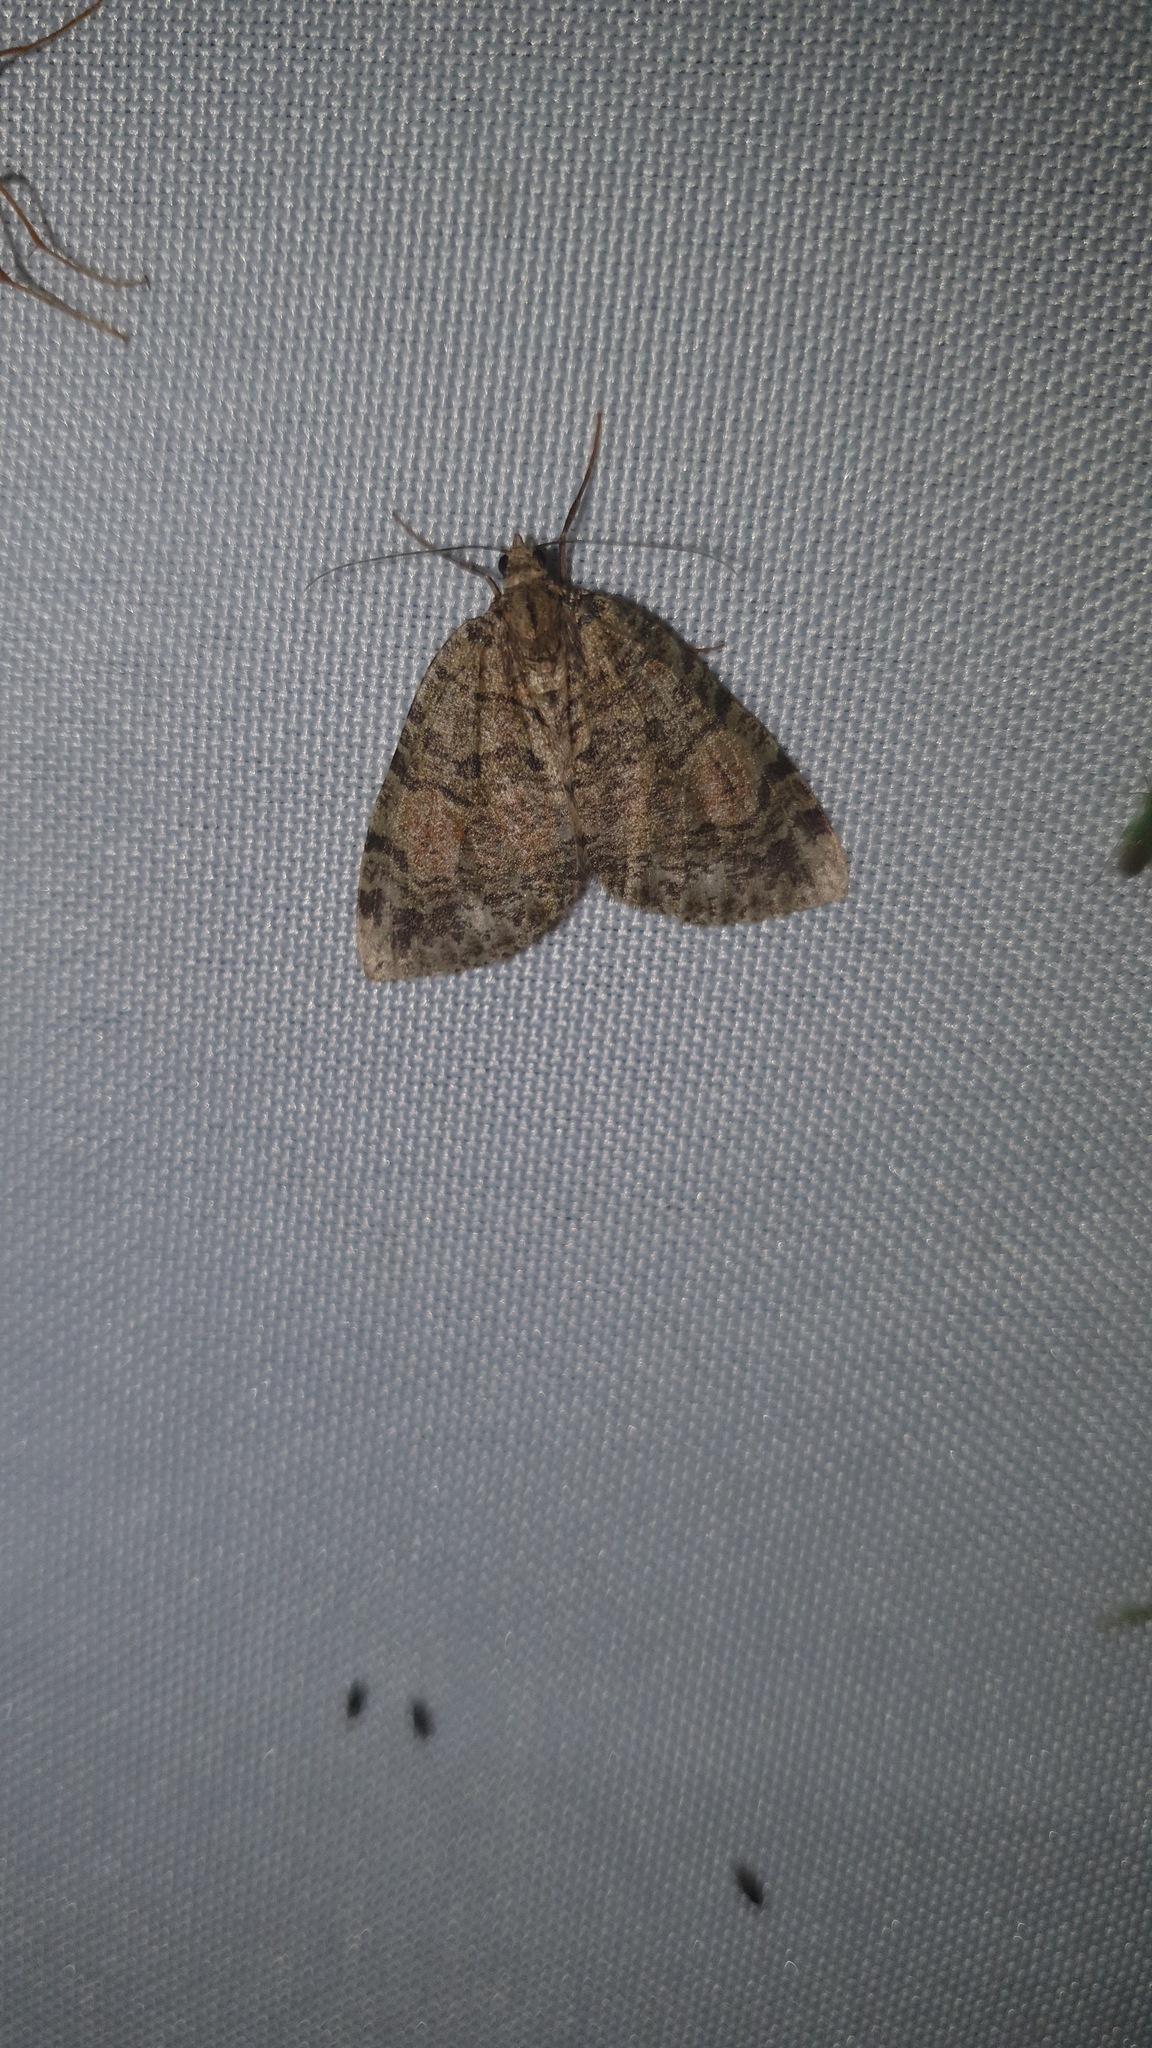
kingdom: Animalia
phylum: Arthropoda
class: Insecta
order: Lepidoptera
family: Geometridae
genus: Hydriomena
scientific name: Hydriomena furcata
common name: July highflyer
